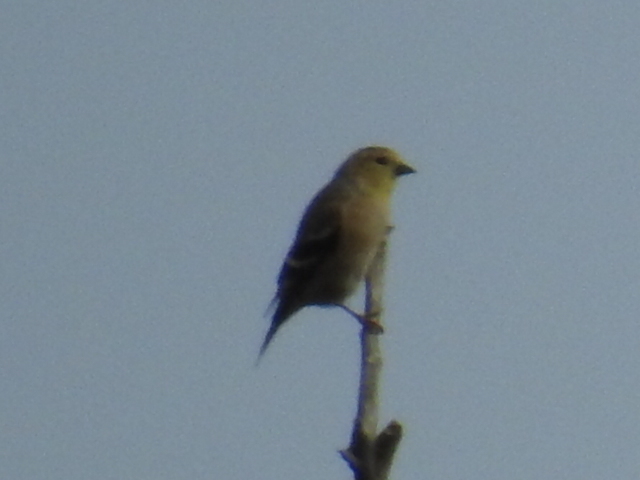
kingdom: Animalia
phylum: Chordata
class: Aves
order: Passeriformes
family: Fringillidae
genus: Spinus
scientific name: Spinus tristis
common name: American goldfinch
